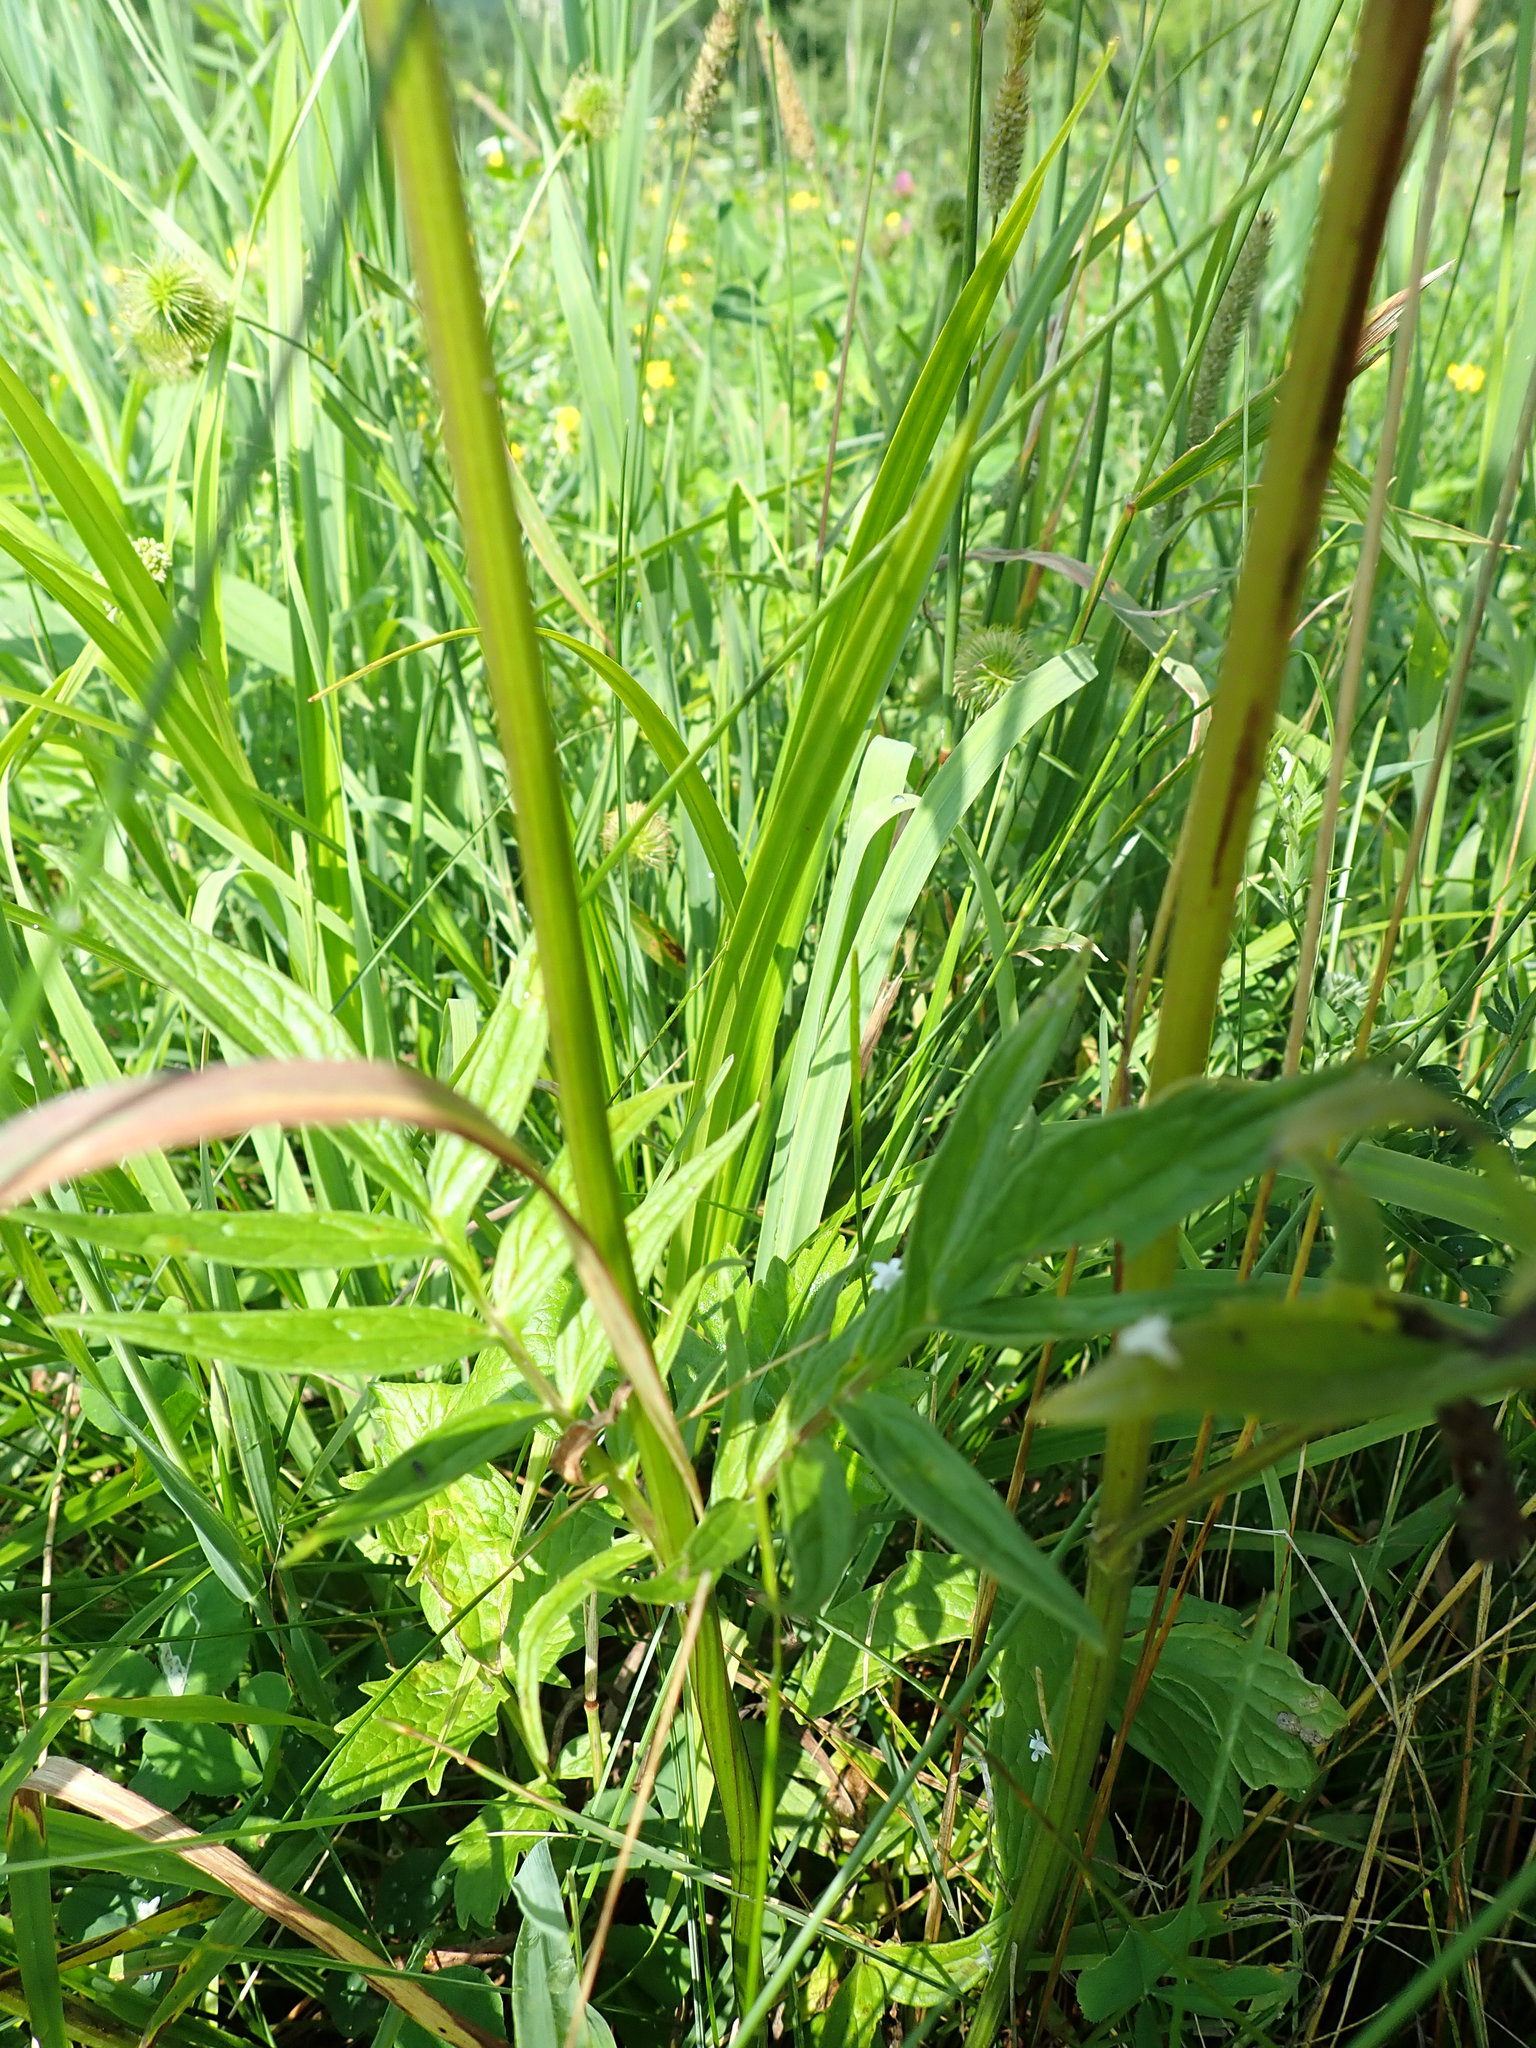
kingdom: Plantae
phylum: Tracheophyta
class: Magnoliopsida
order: Dipsacales
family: Caprifoliaceae
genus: Valeriana
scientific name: Valeriana officinalis
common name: Common valerian
